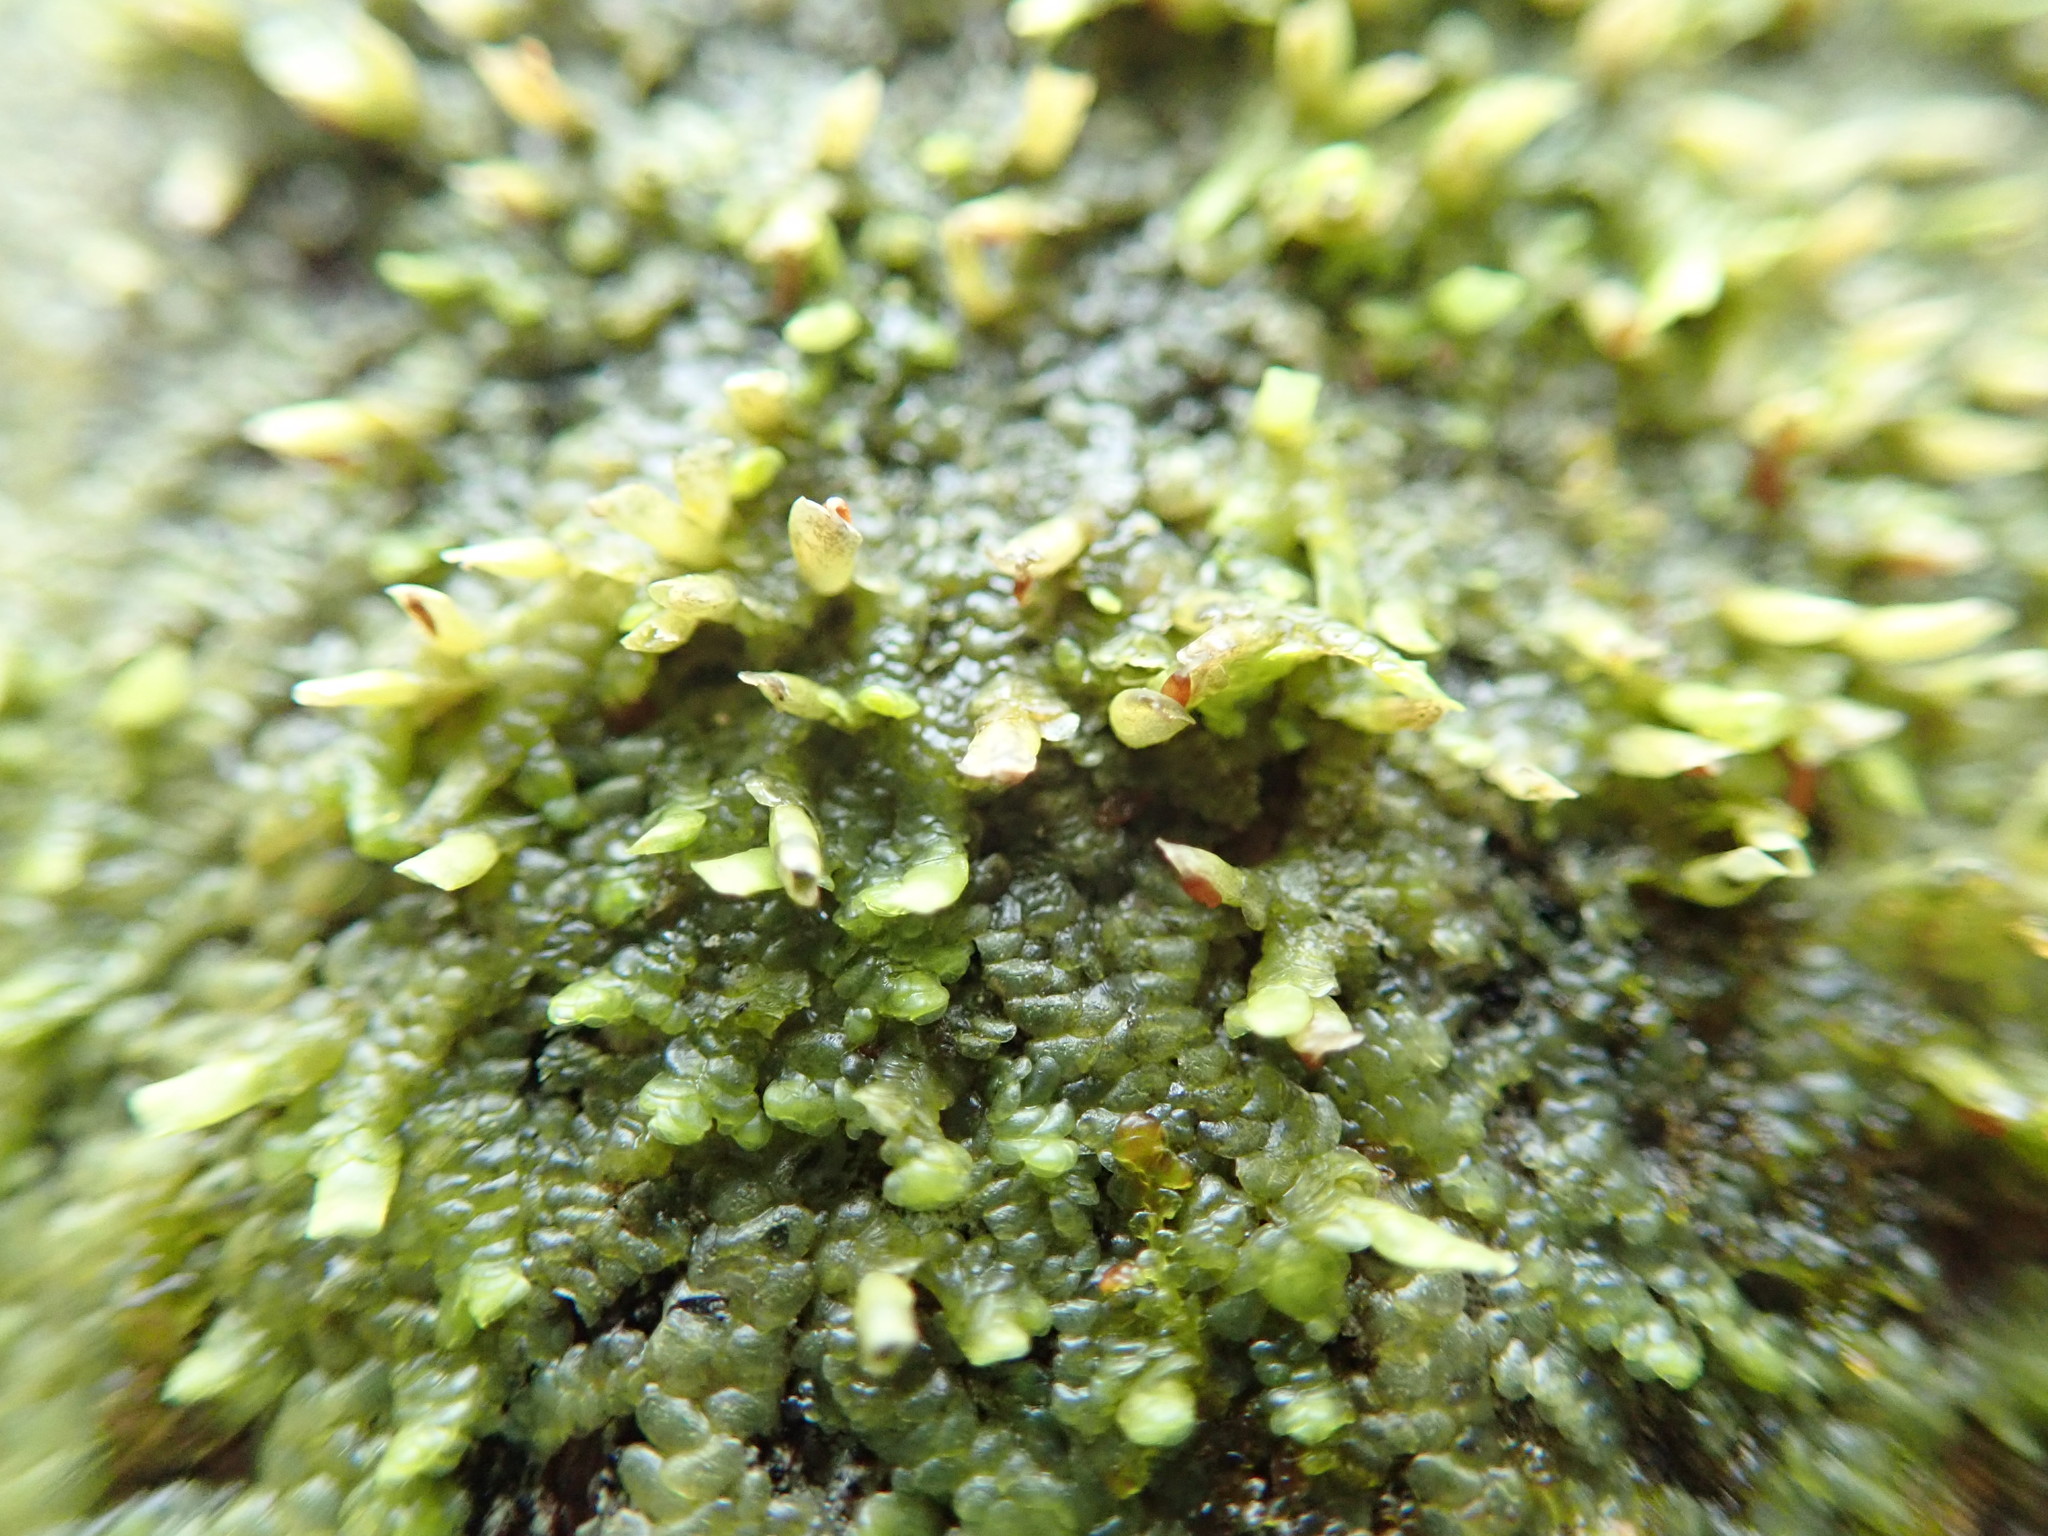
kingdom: Plantae
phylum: Marchantiophyta
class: Jungermanniopsida
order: Porellales
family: Radulaceae
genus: Radula
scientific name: Radula complanata
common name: Flat-leaved scalewort
